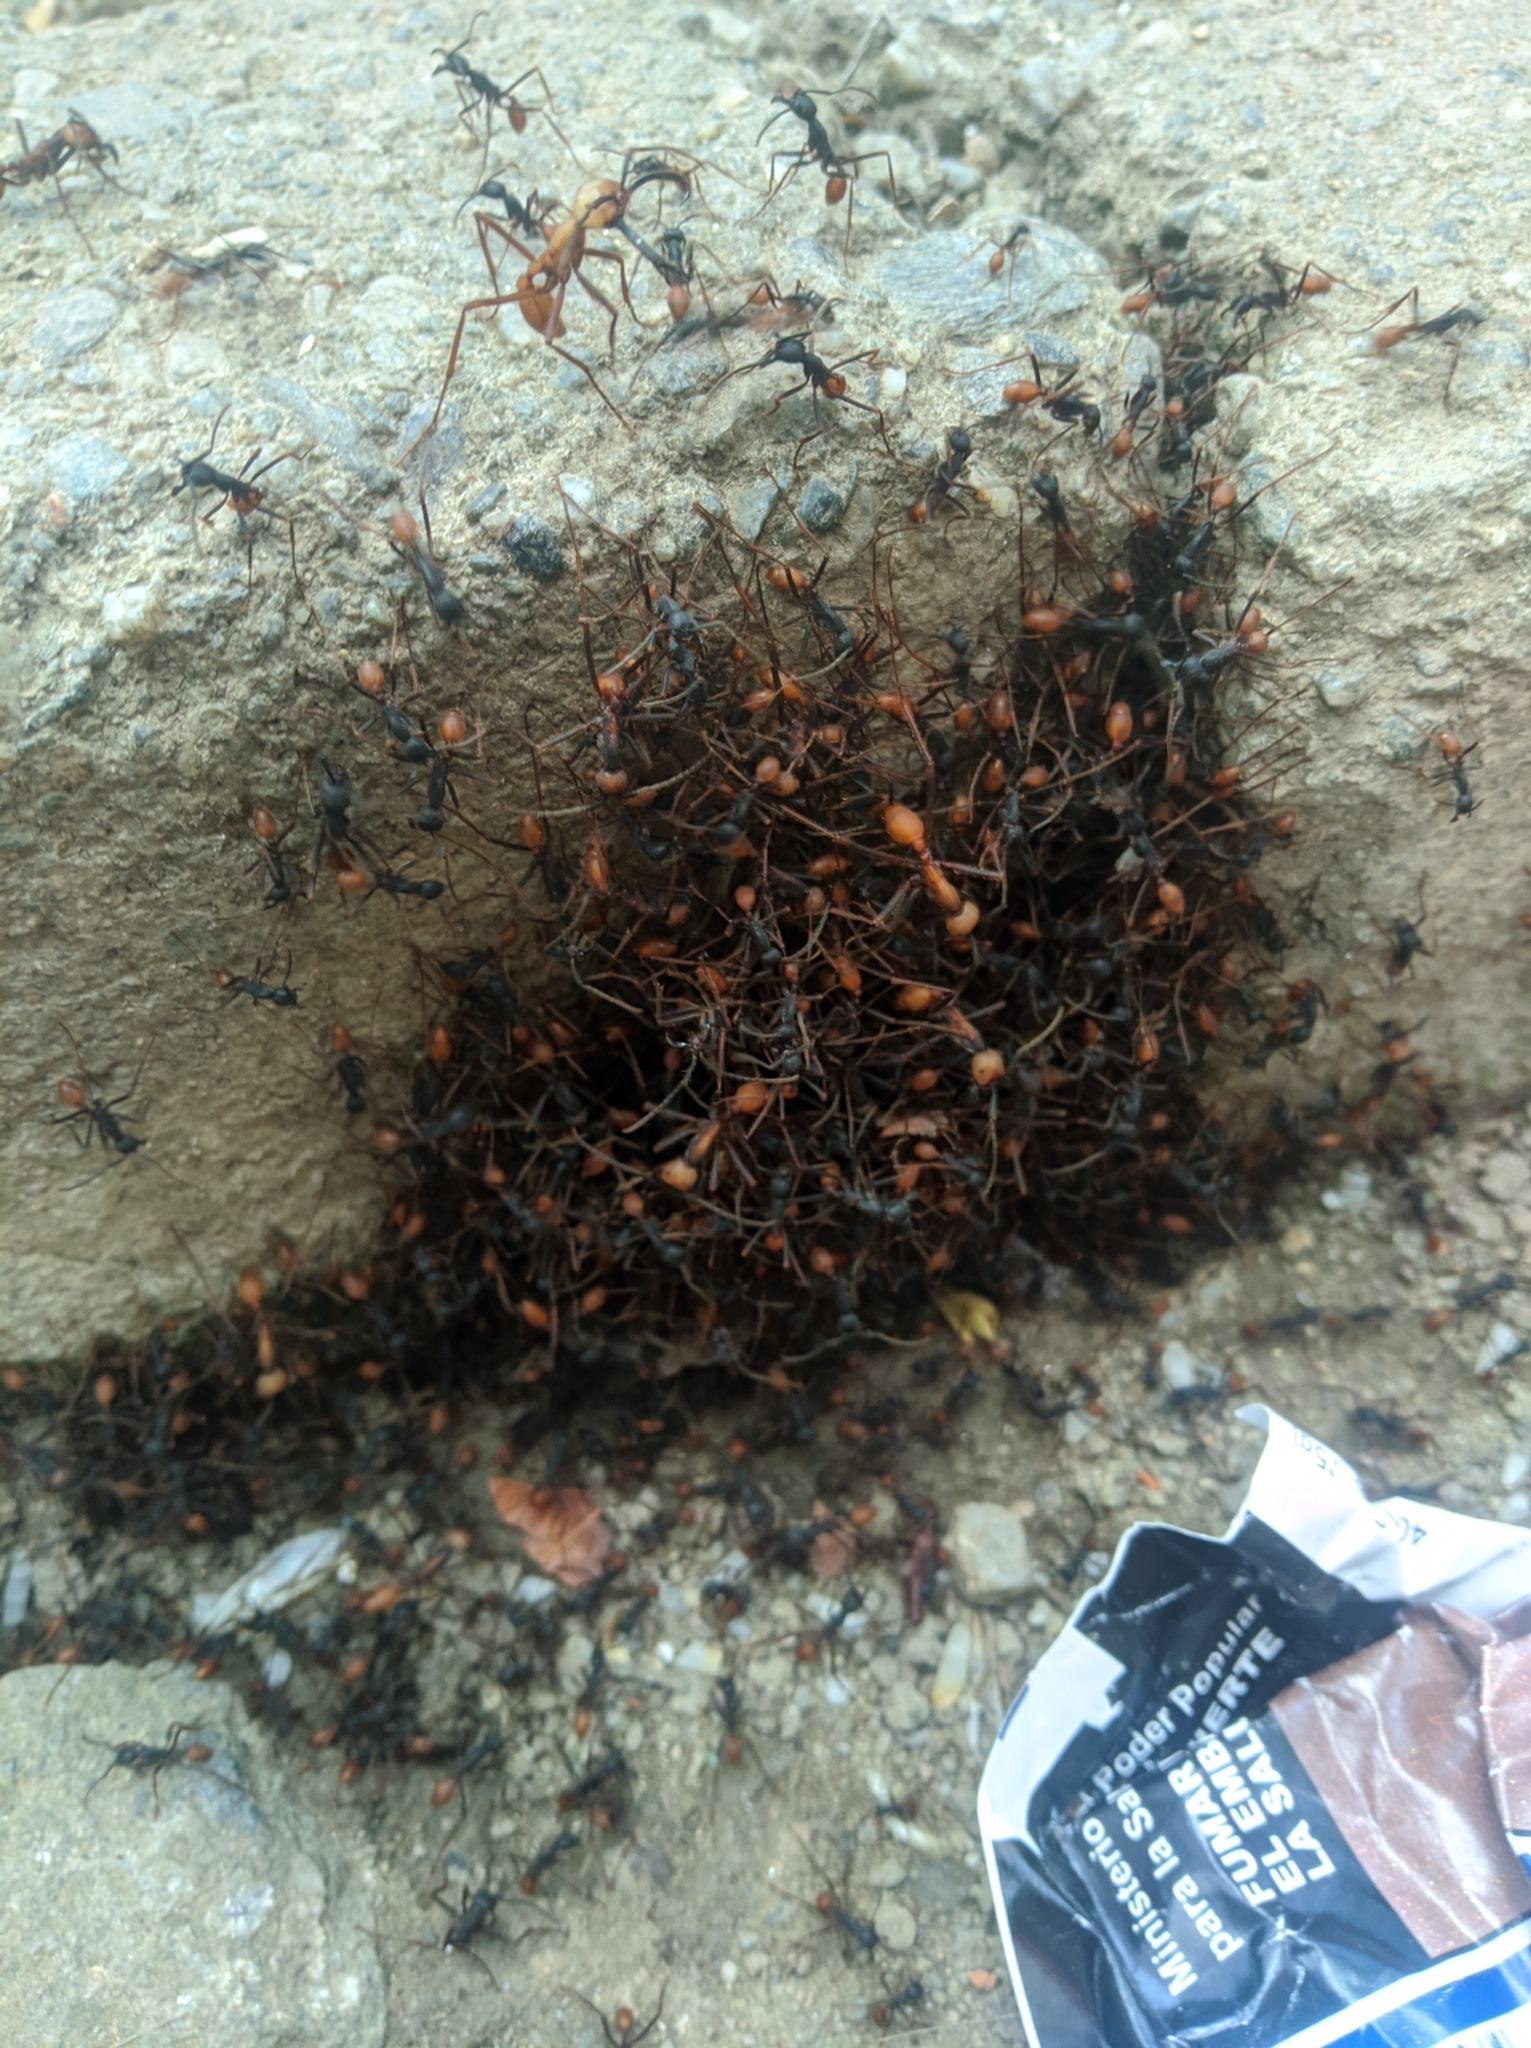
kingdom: Animalia
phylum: Arthropoda
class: Insecta
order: Hymenoptera
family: Formicidae
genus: Eciton
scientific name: Eciton burchellii
